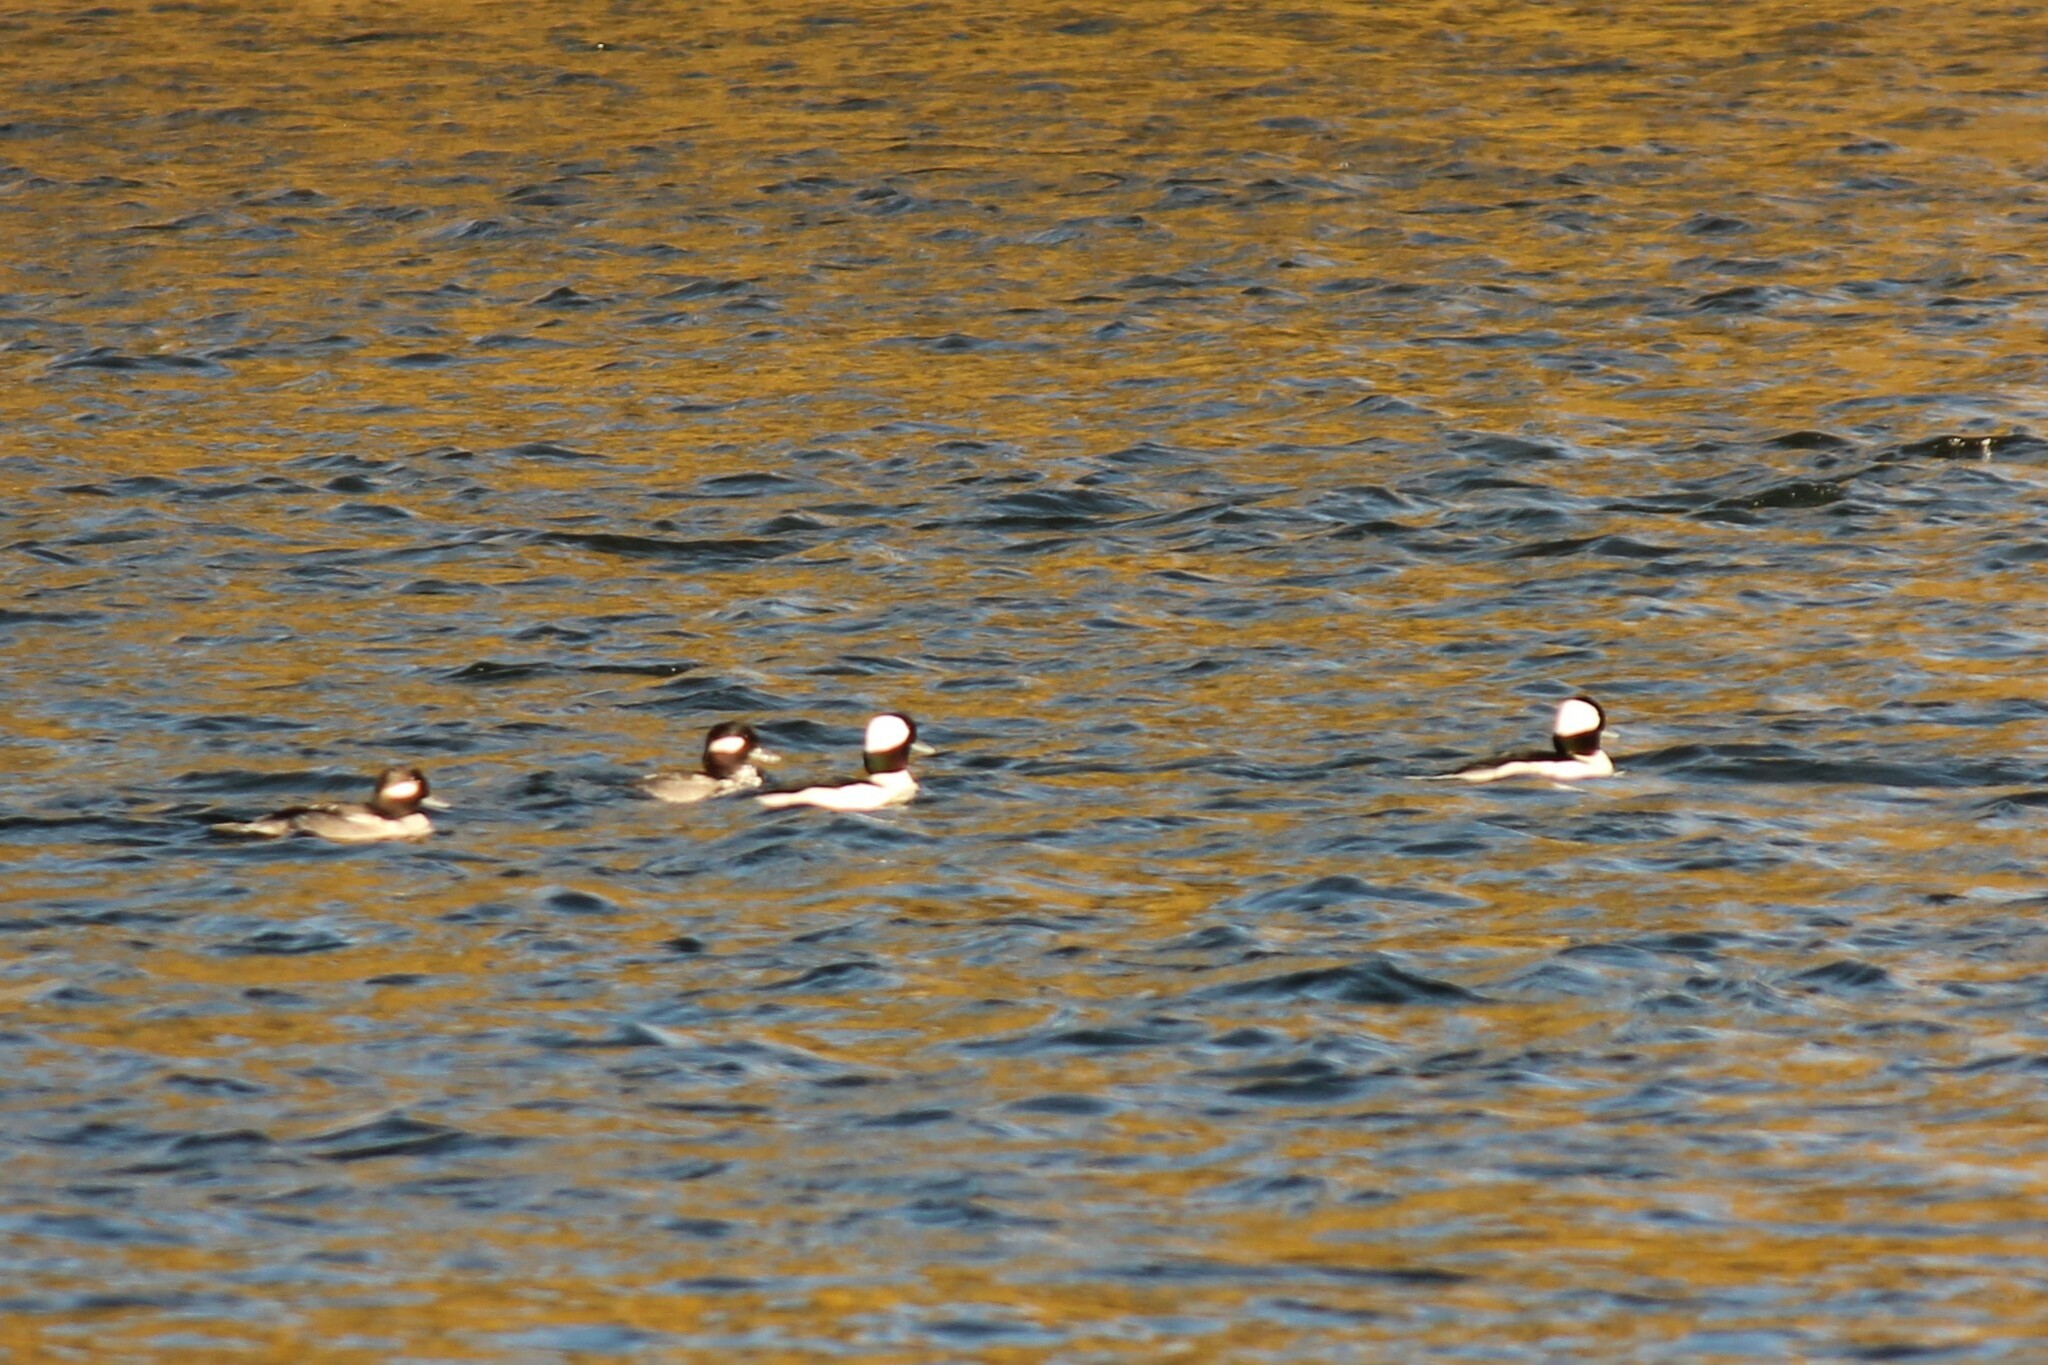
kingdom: Animalia
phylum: Chordata
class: Aves
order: Anseriformes
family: Anatidae
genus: Bucephala
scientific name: Bucephala albeola
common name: Bufflehead
